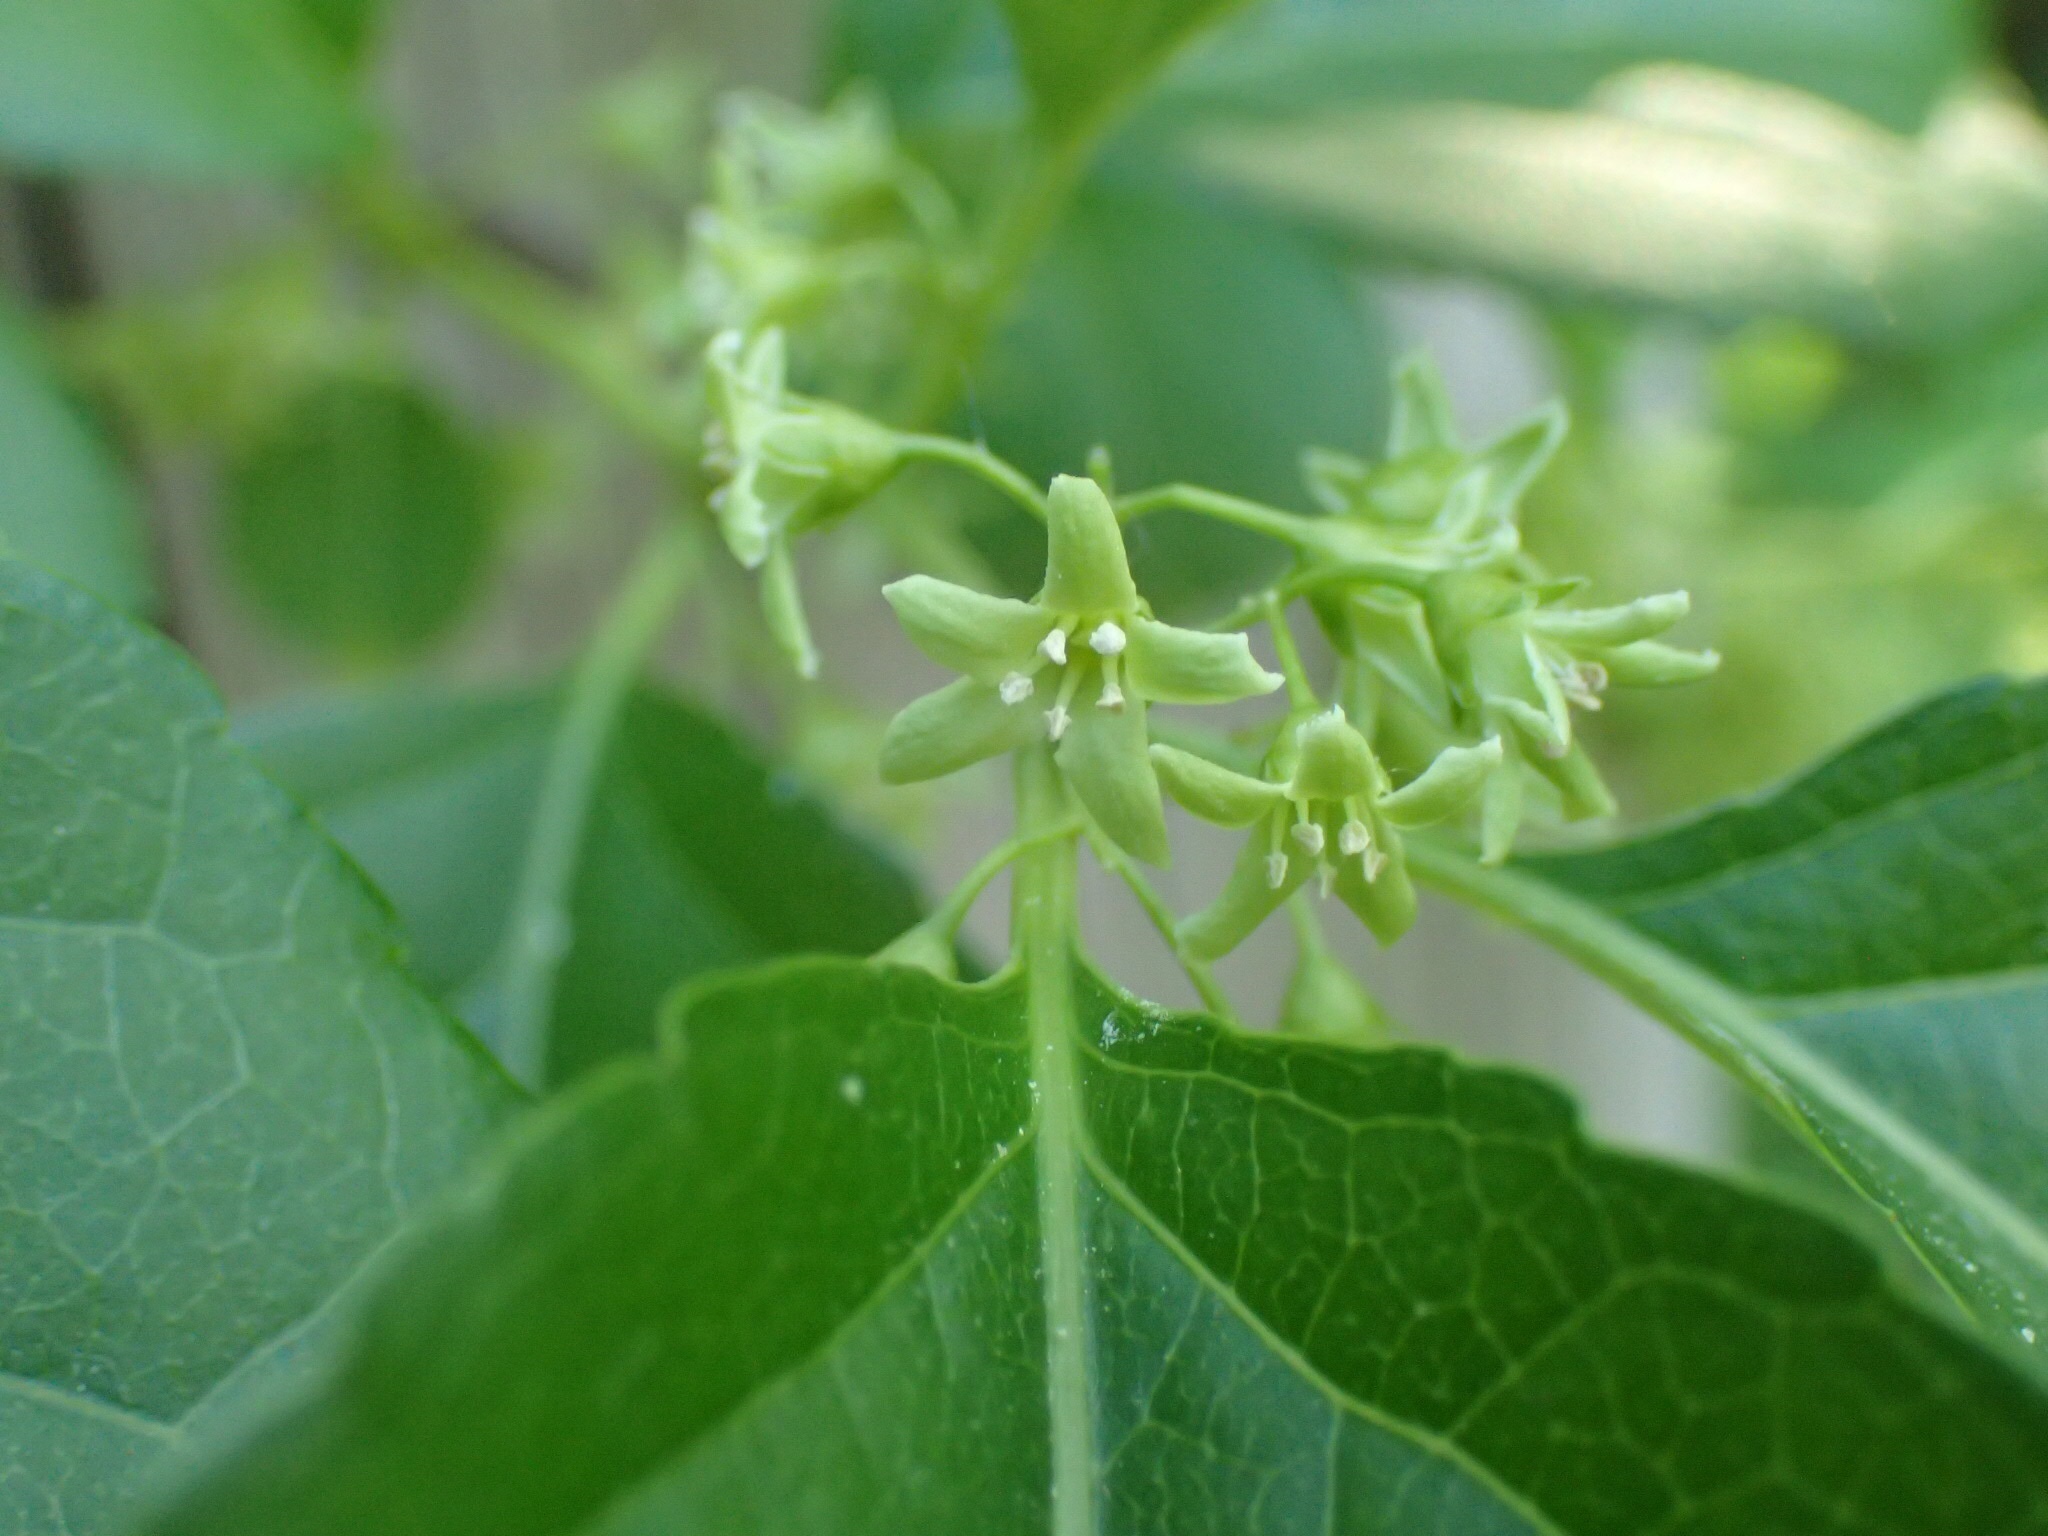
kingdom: Plantae
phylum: Tracheophyta
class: Magnoliopsida
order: Celastrales
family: Celastraceae
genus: Celastrus
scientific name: Celastrus orbiculatus
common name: Oriental bittersweet
